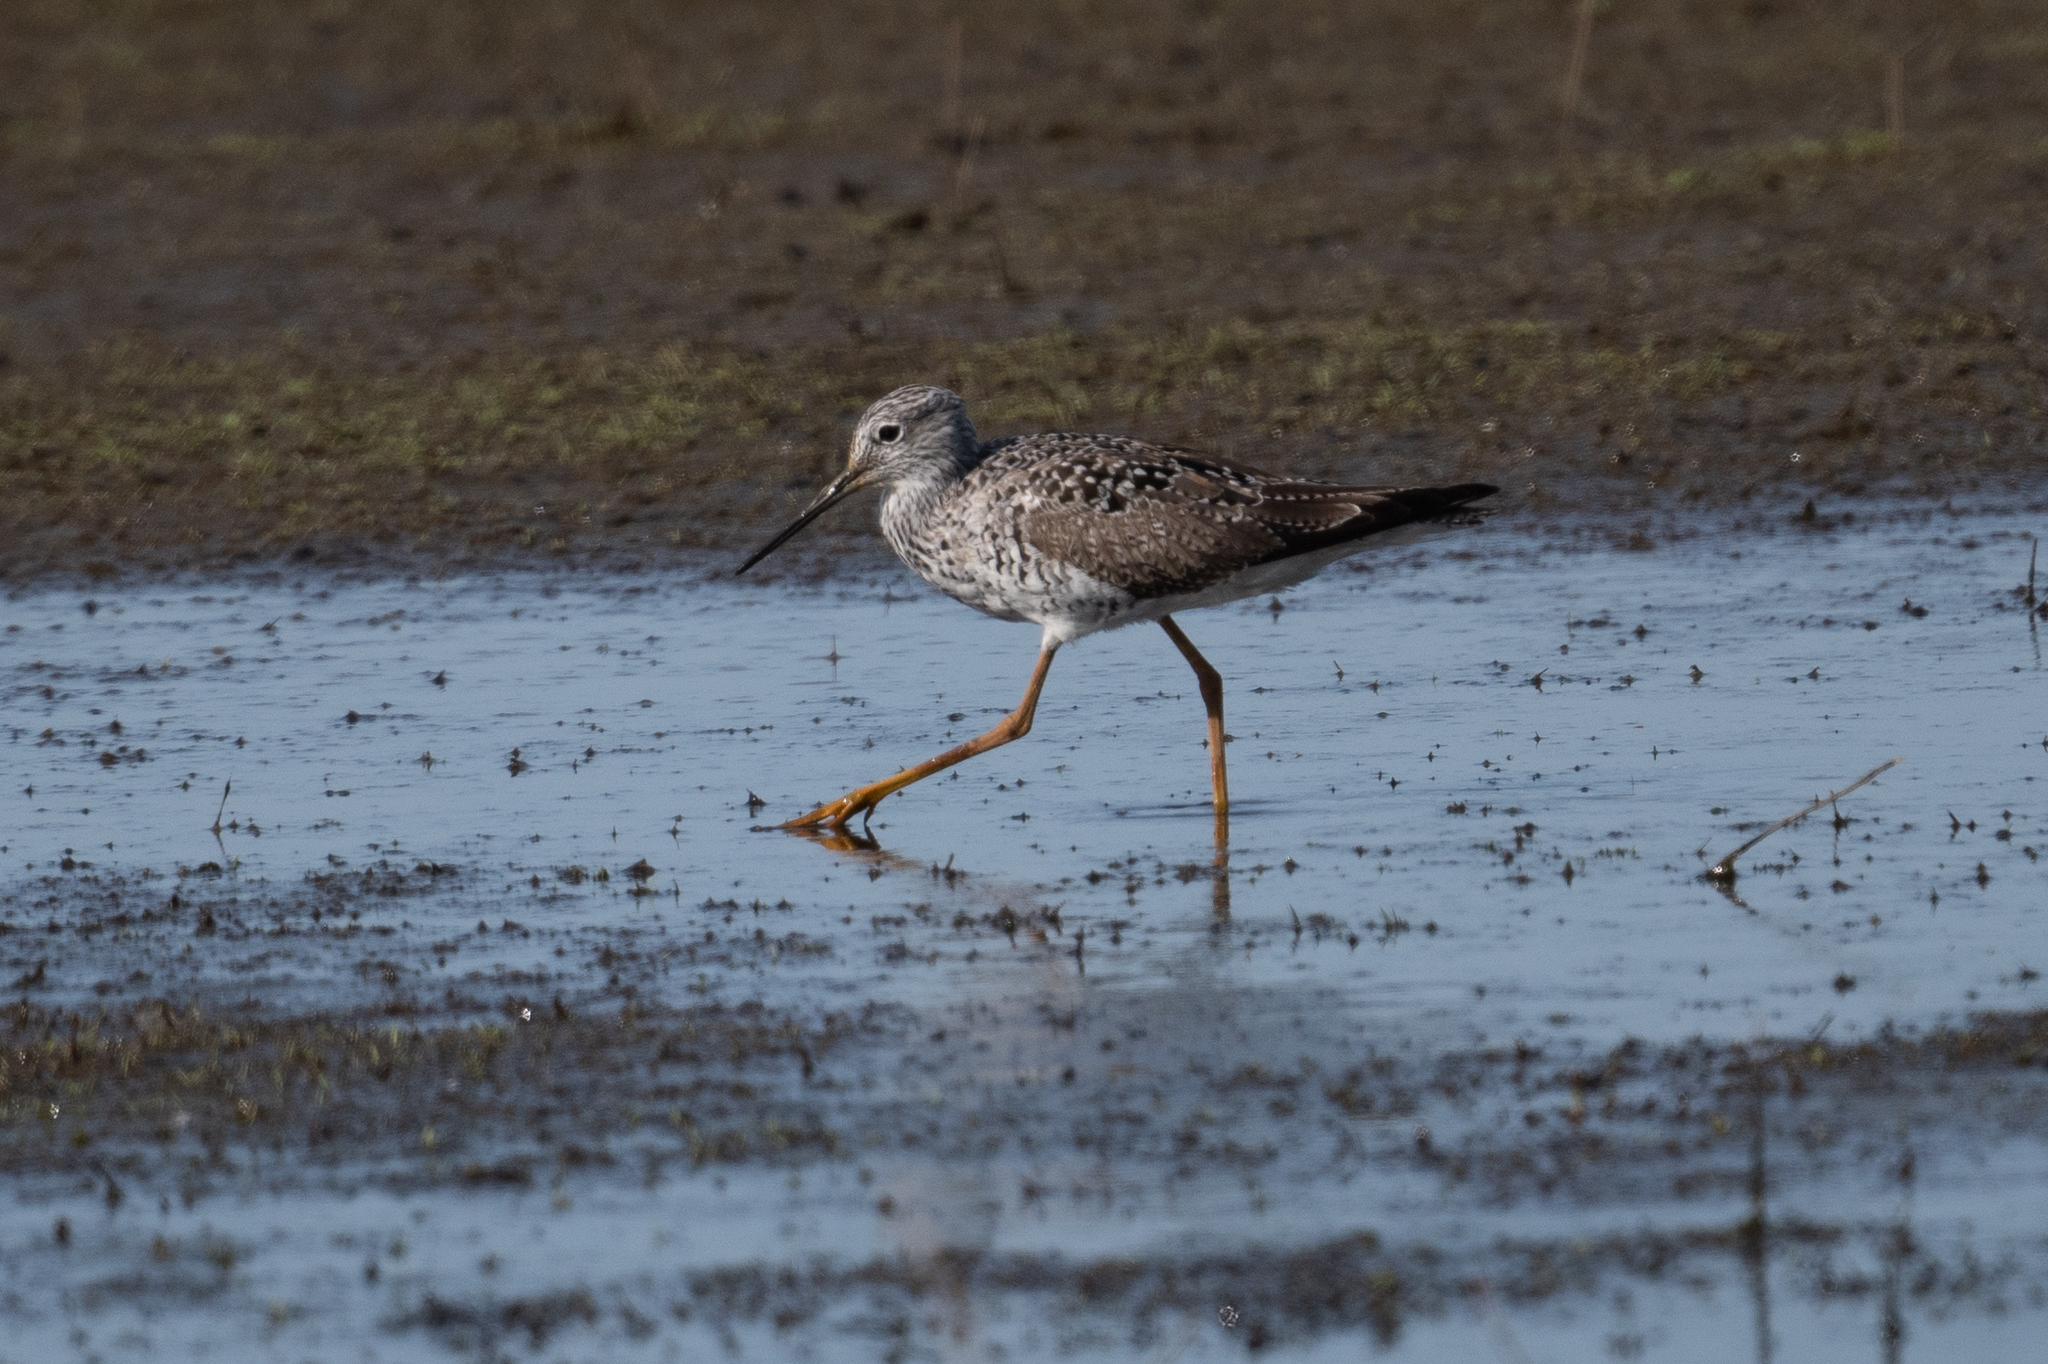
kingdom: Animalia
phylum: Chordata
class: Aves
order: Charadriiformes
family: Scolopacidae
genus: Tringa
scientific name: Tringa melanoleuca
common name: Greater yellowlegs
